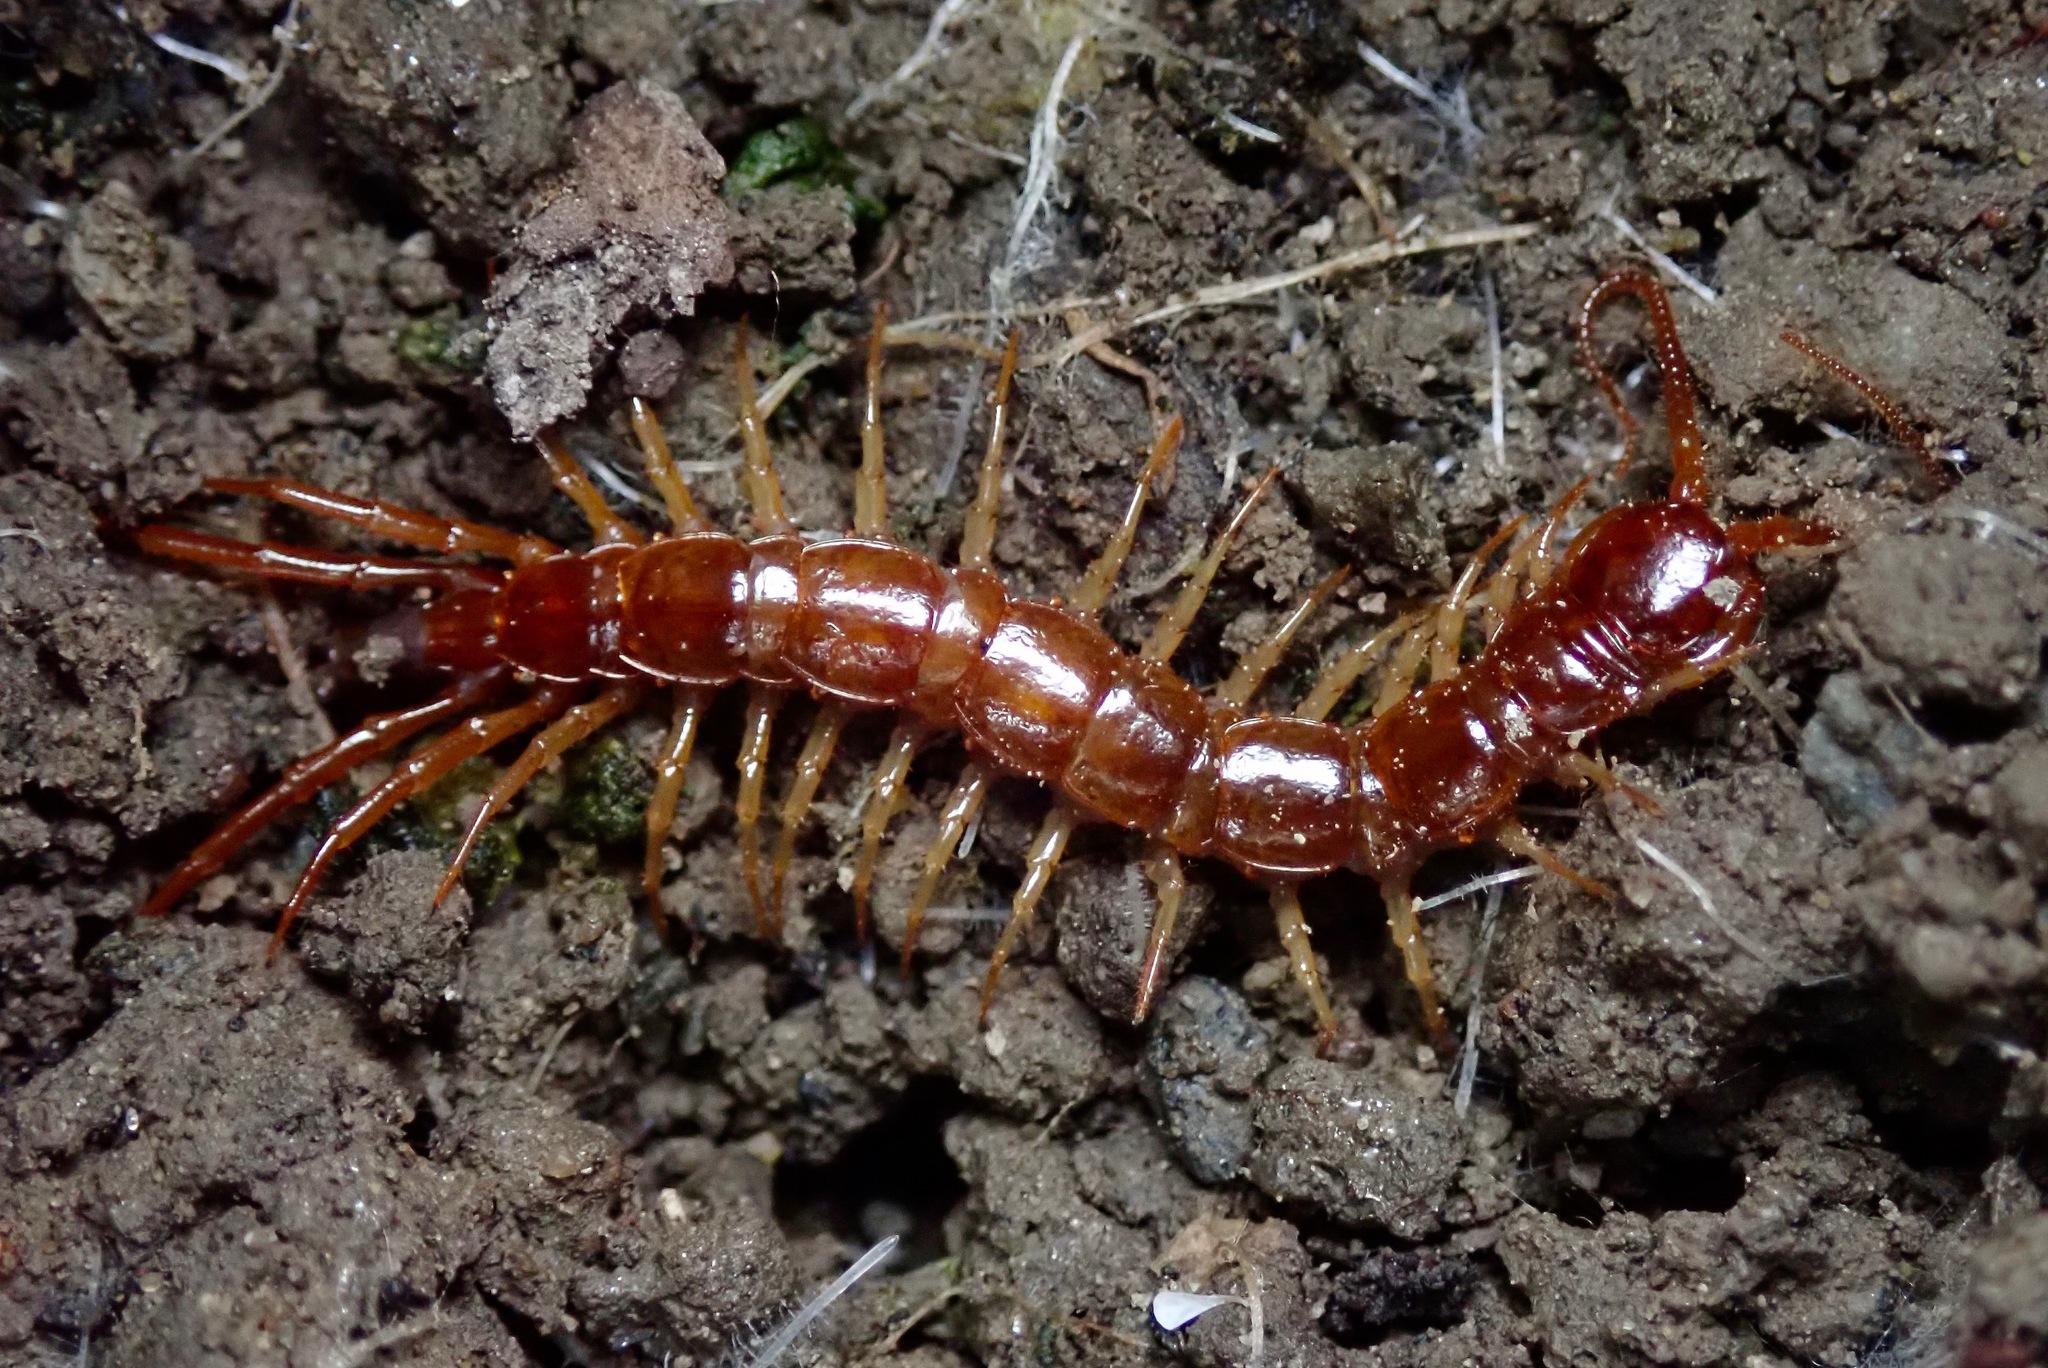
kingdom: Animalia
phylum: Arthropoda
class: Chilopoda
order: Lithobiomorpha
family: Lithobiidae
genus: Lithobius
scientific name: Lithobius forficatus
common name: Centipede
